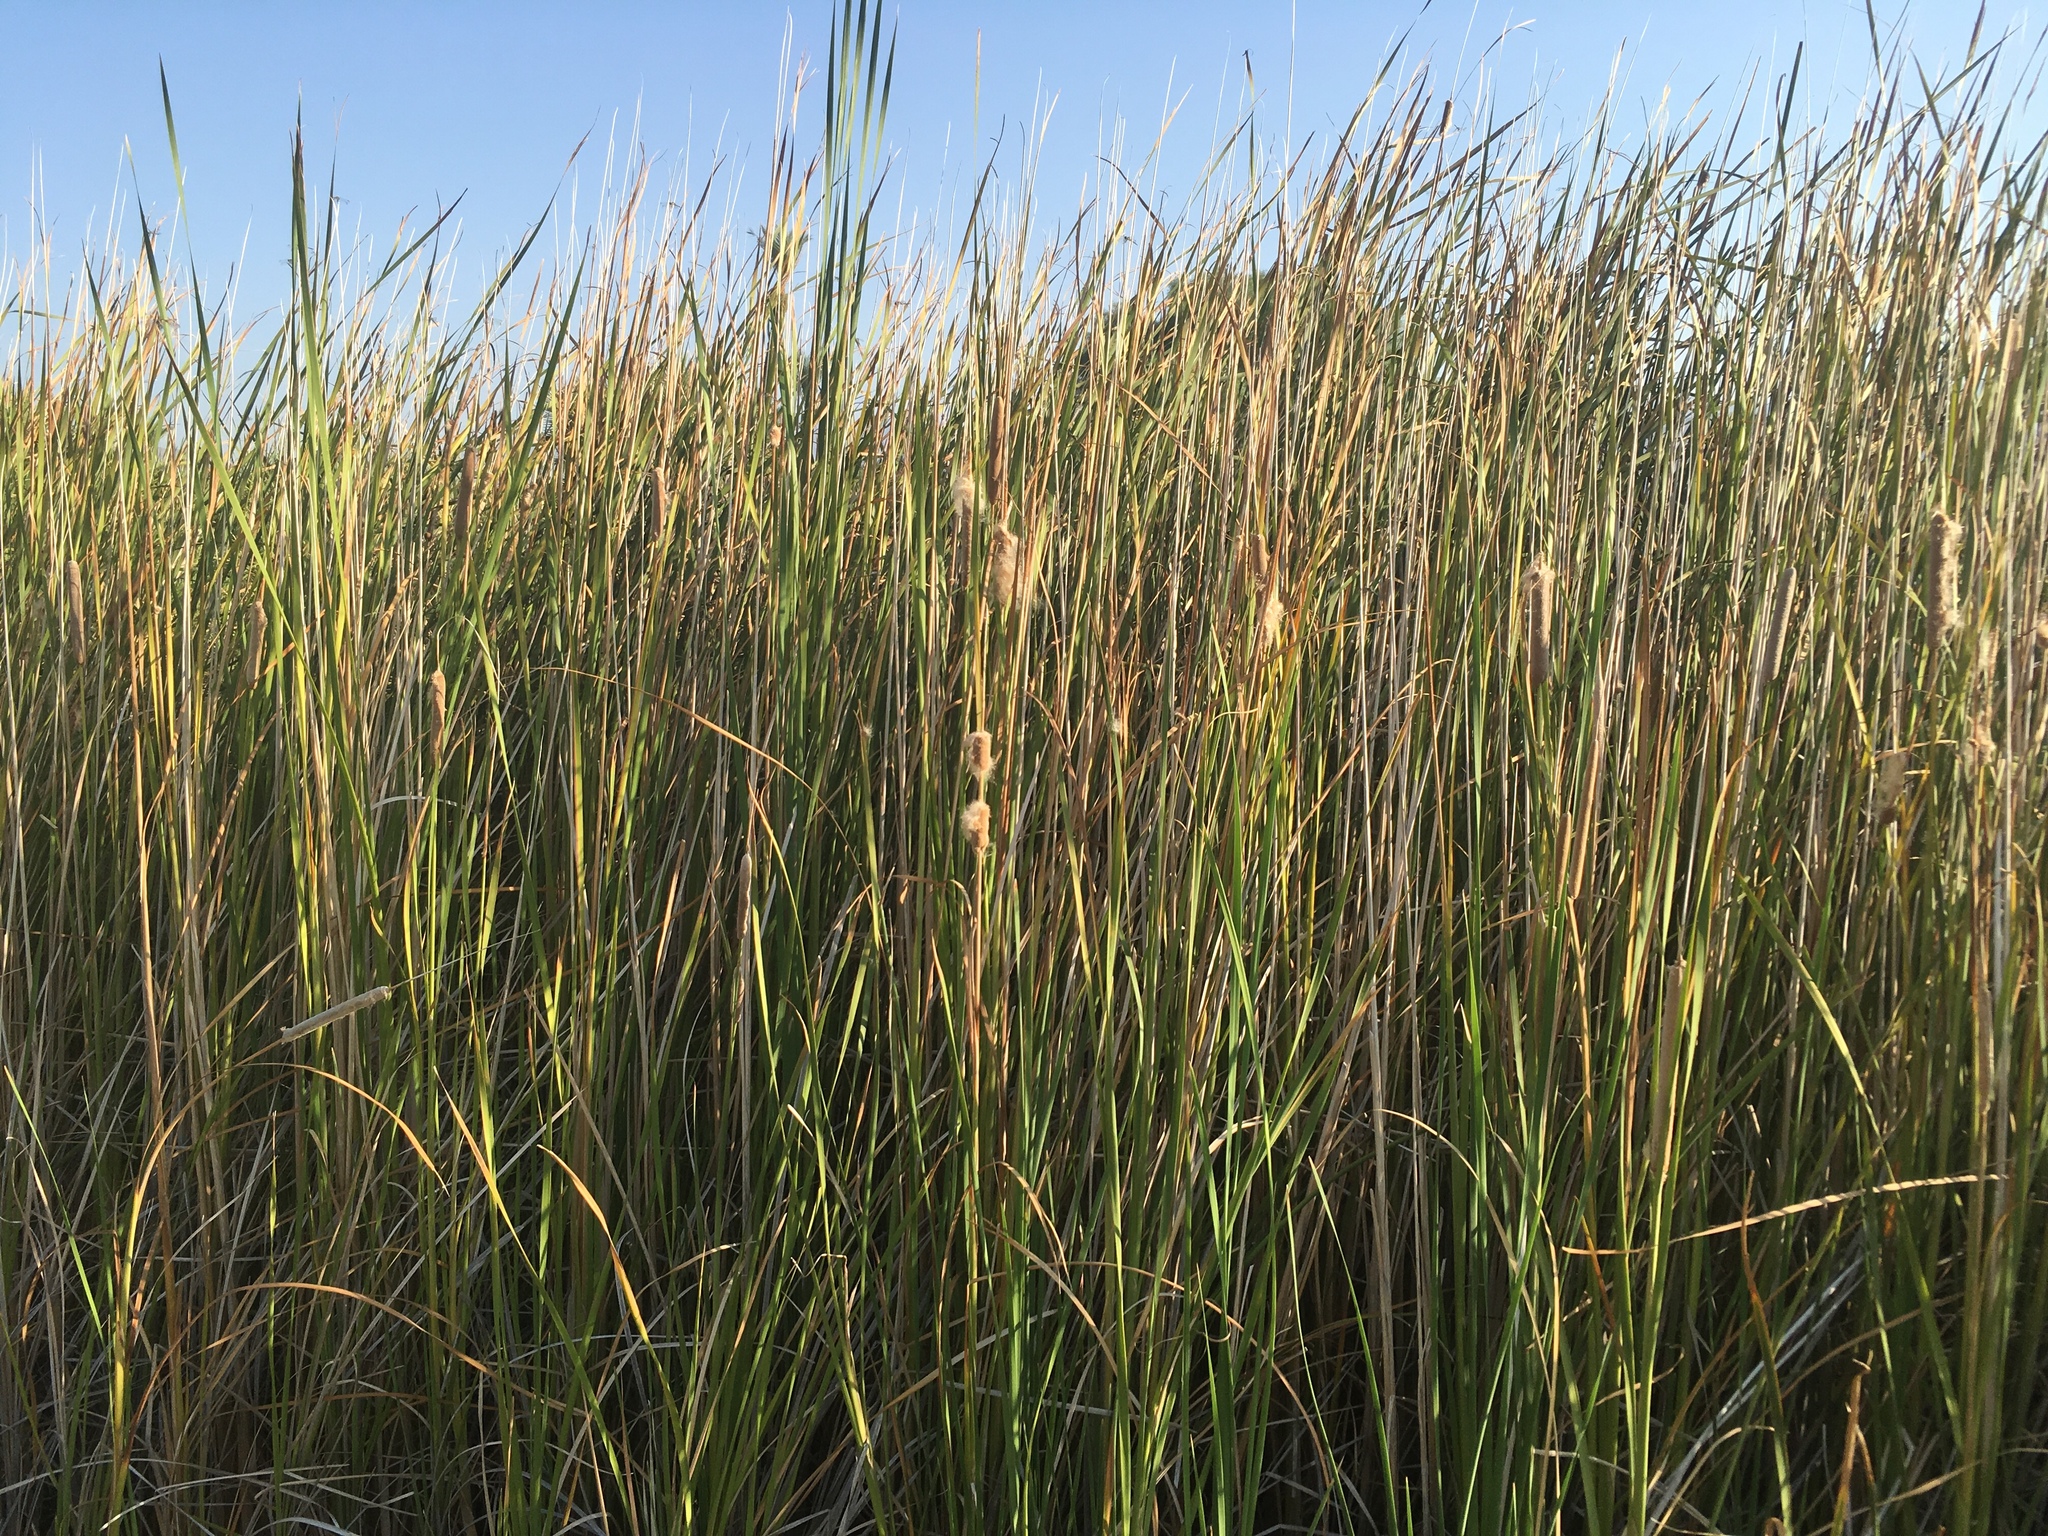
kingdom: Plantae
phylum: Tracheophyta
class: Liliopsida
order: Poales
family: Typhaceae
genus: Typha
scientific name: Typha domingensis
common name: Southern cattail
